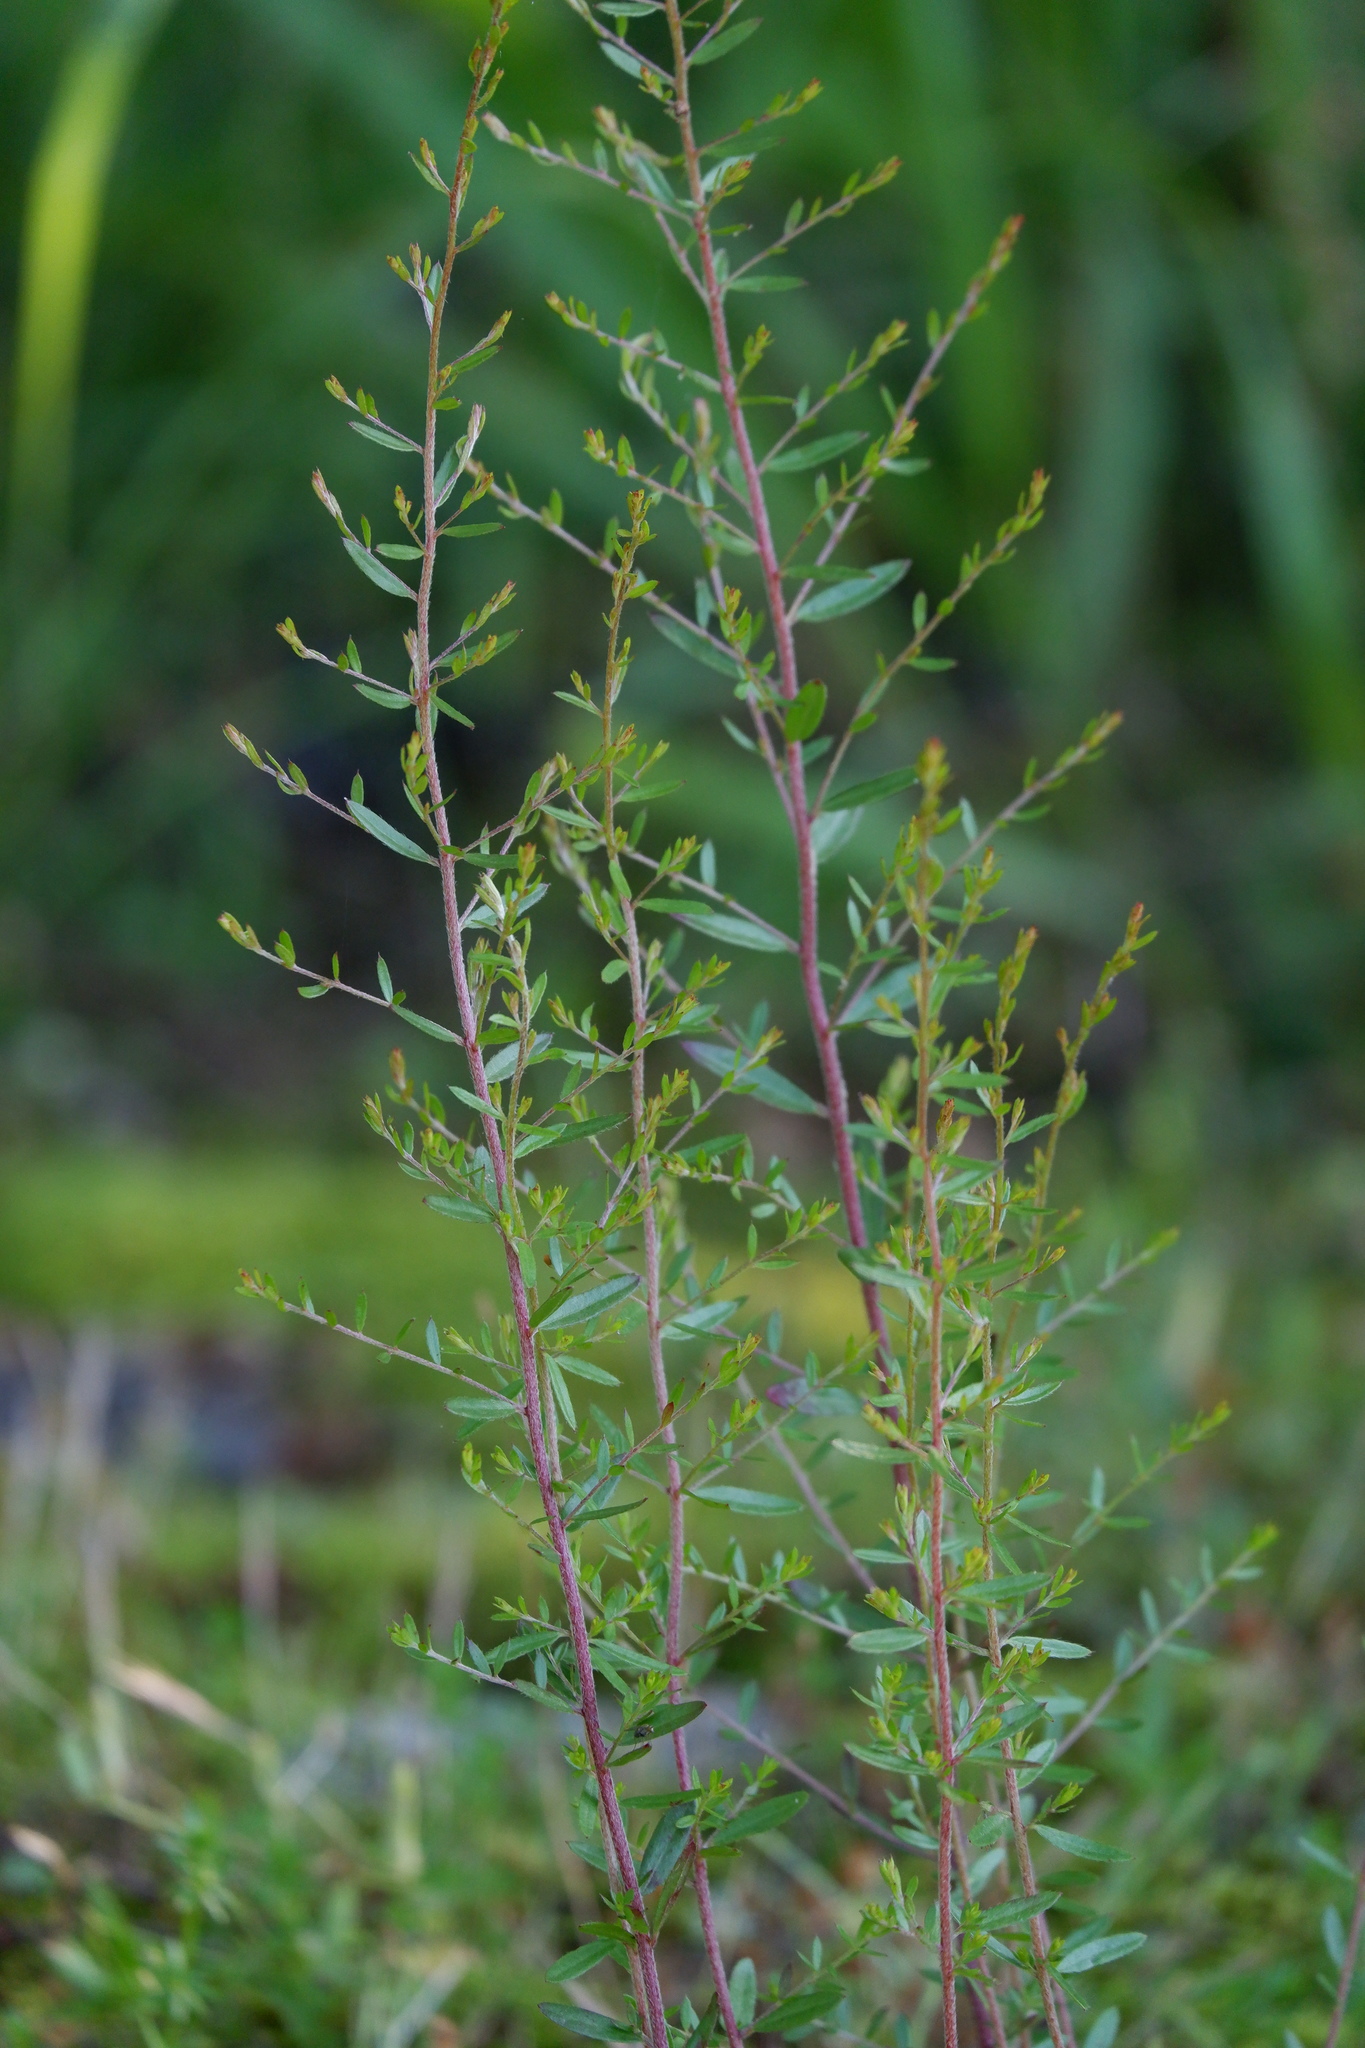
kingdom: Plantae
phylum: Tracheophyta
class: Magnoliopsida
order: Malvales
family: Cistaceae
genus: Lechea
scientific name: Lechea racemulosa
